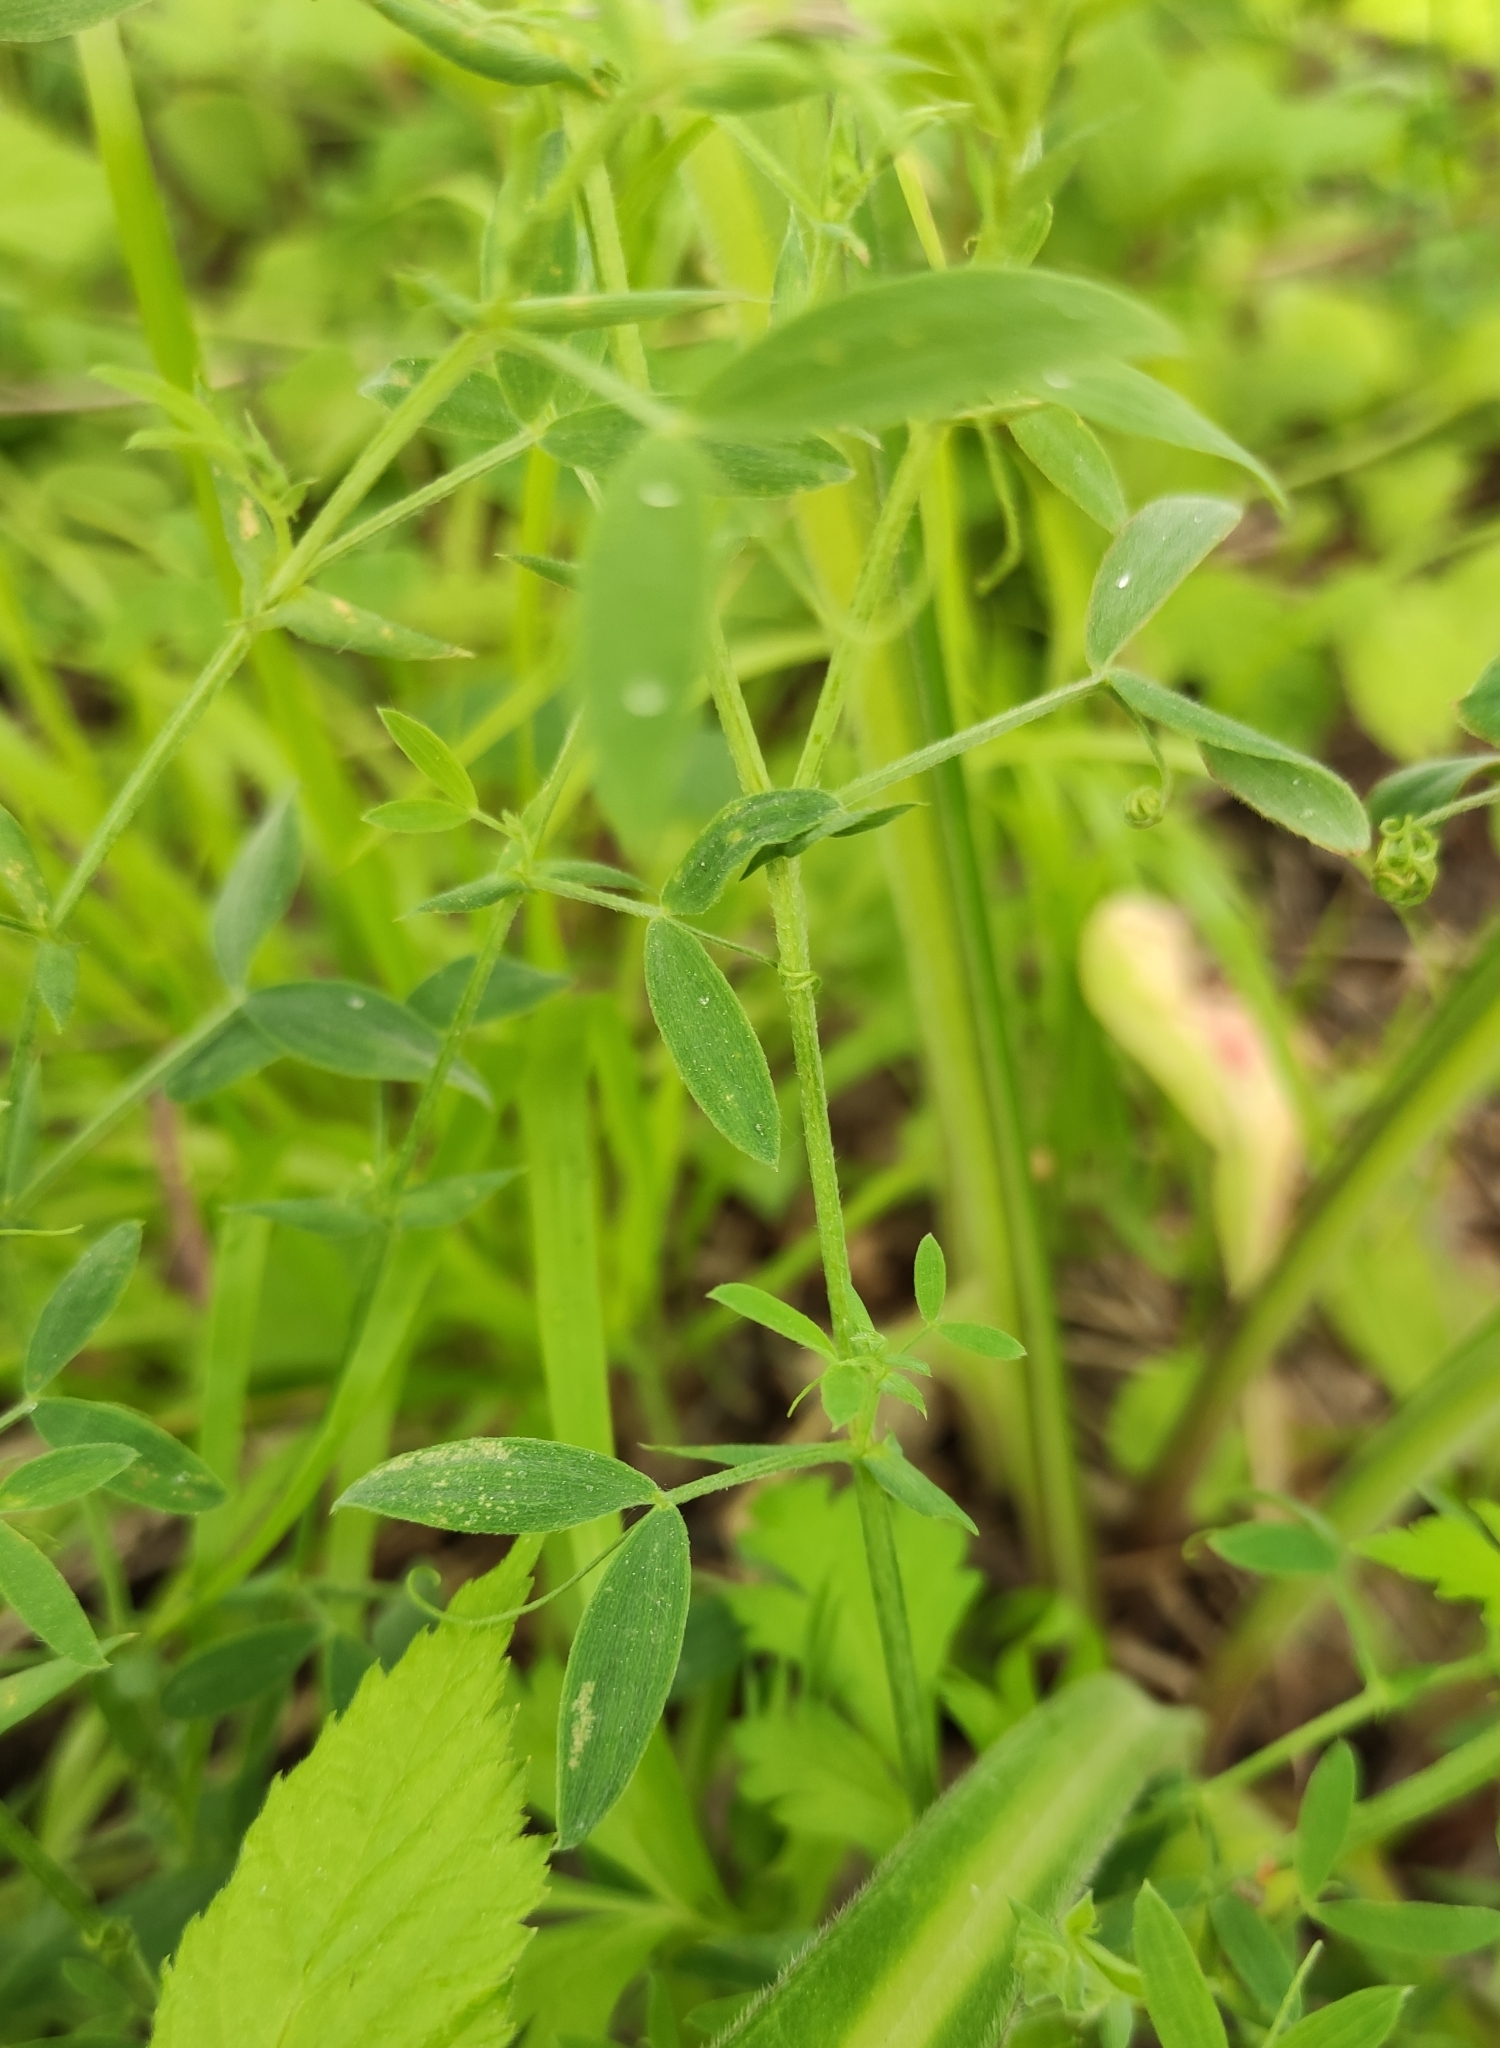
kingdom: Plantae
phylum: Tracheophyta
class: Magnoliopsida
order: Fabales
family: Fabaceae
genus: Lathyrus
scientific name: Lathyrus pratensis
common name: Meadow vetchling
